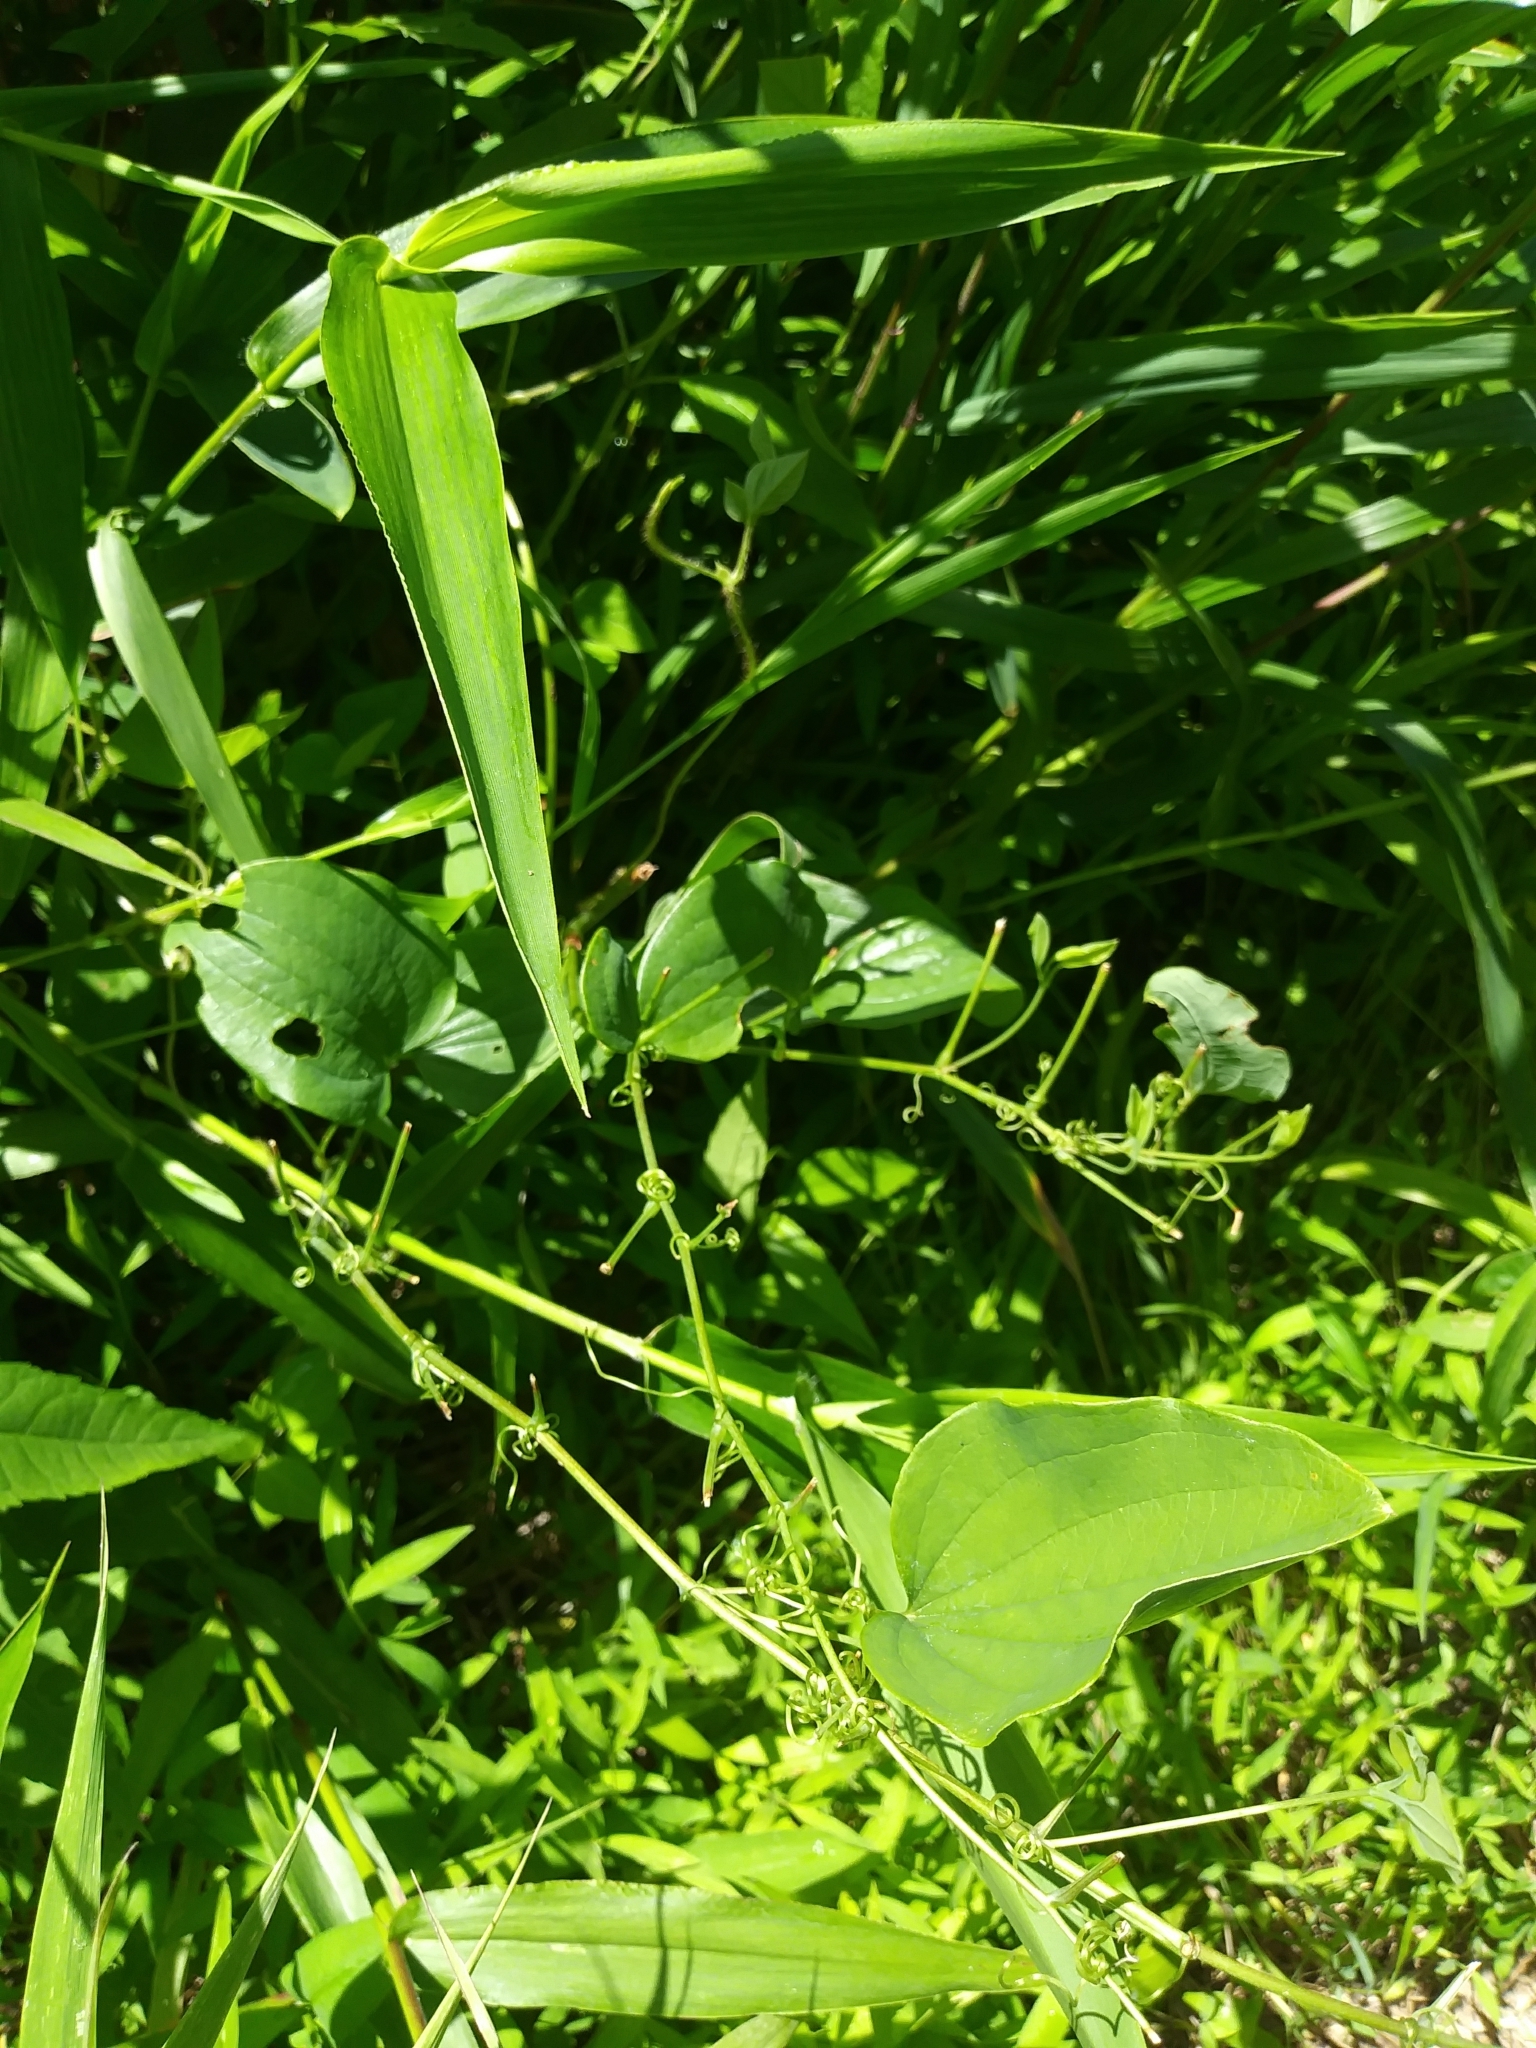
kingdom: Plantae
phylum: Tracheophyta
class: Liliopsida
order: Liliales
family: Smilacaceae
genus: Smilax
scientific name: Smilax herbacea
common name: Jacob's-ladder
